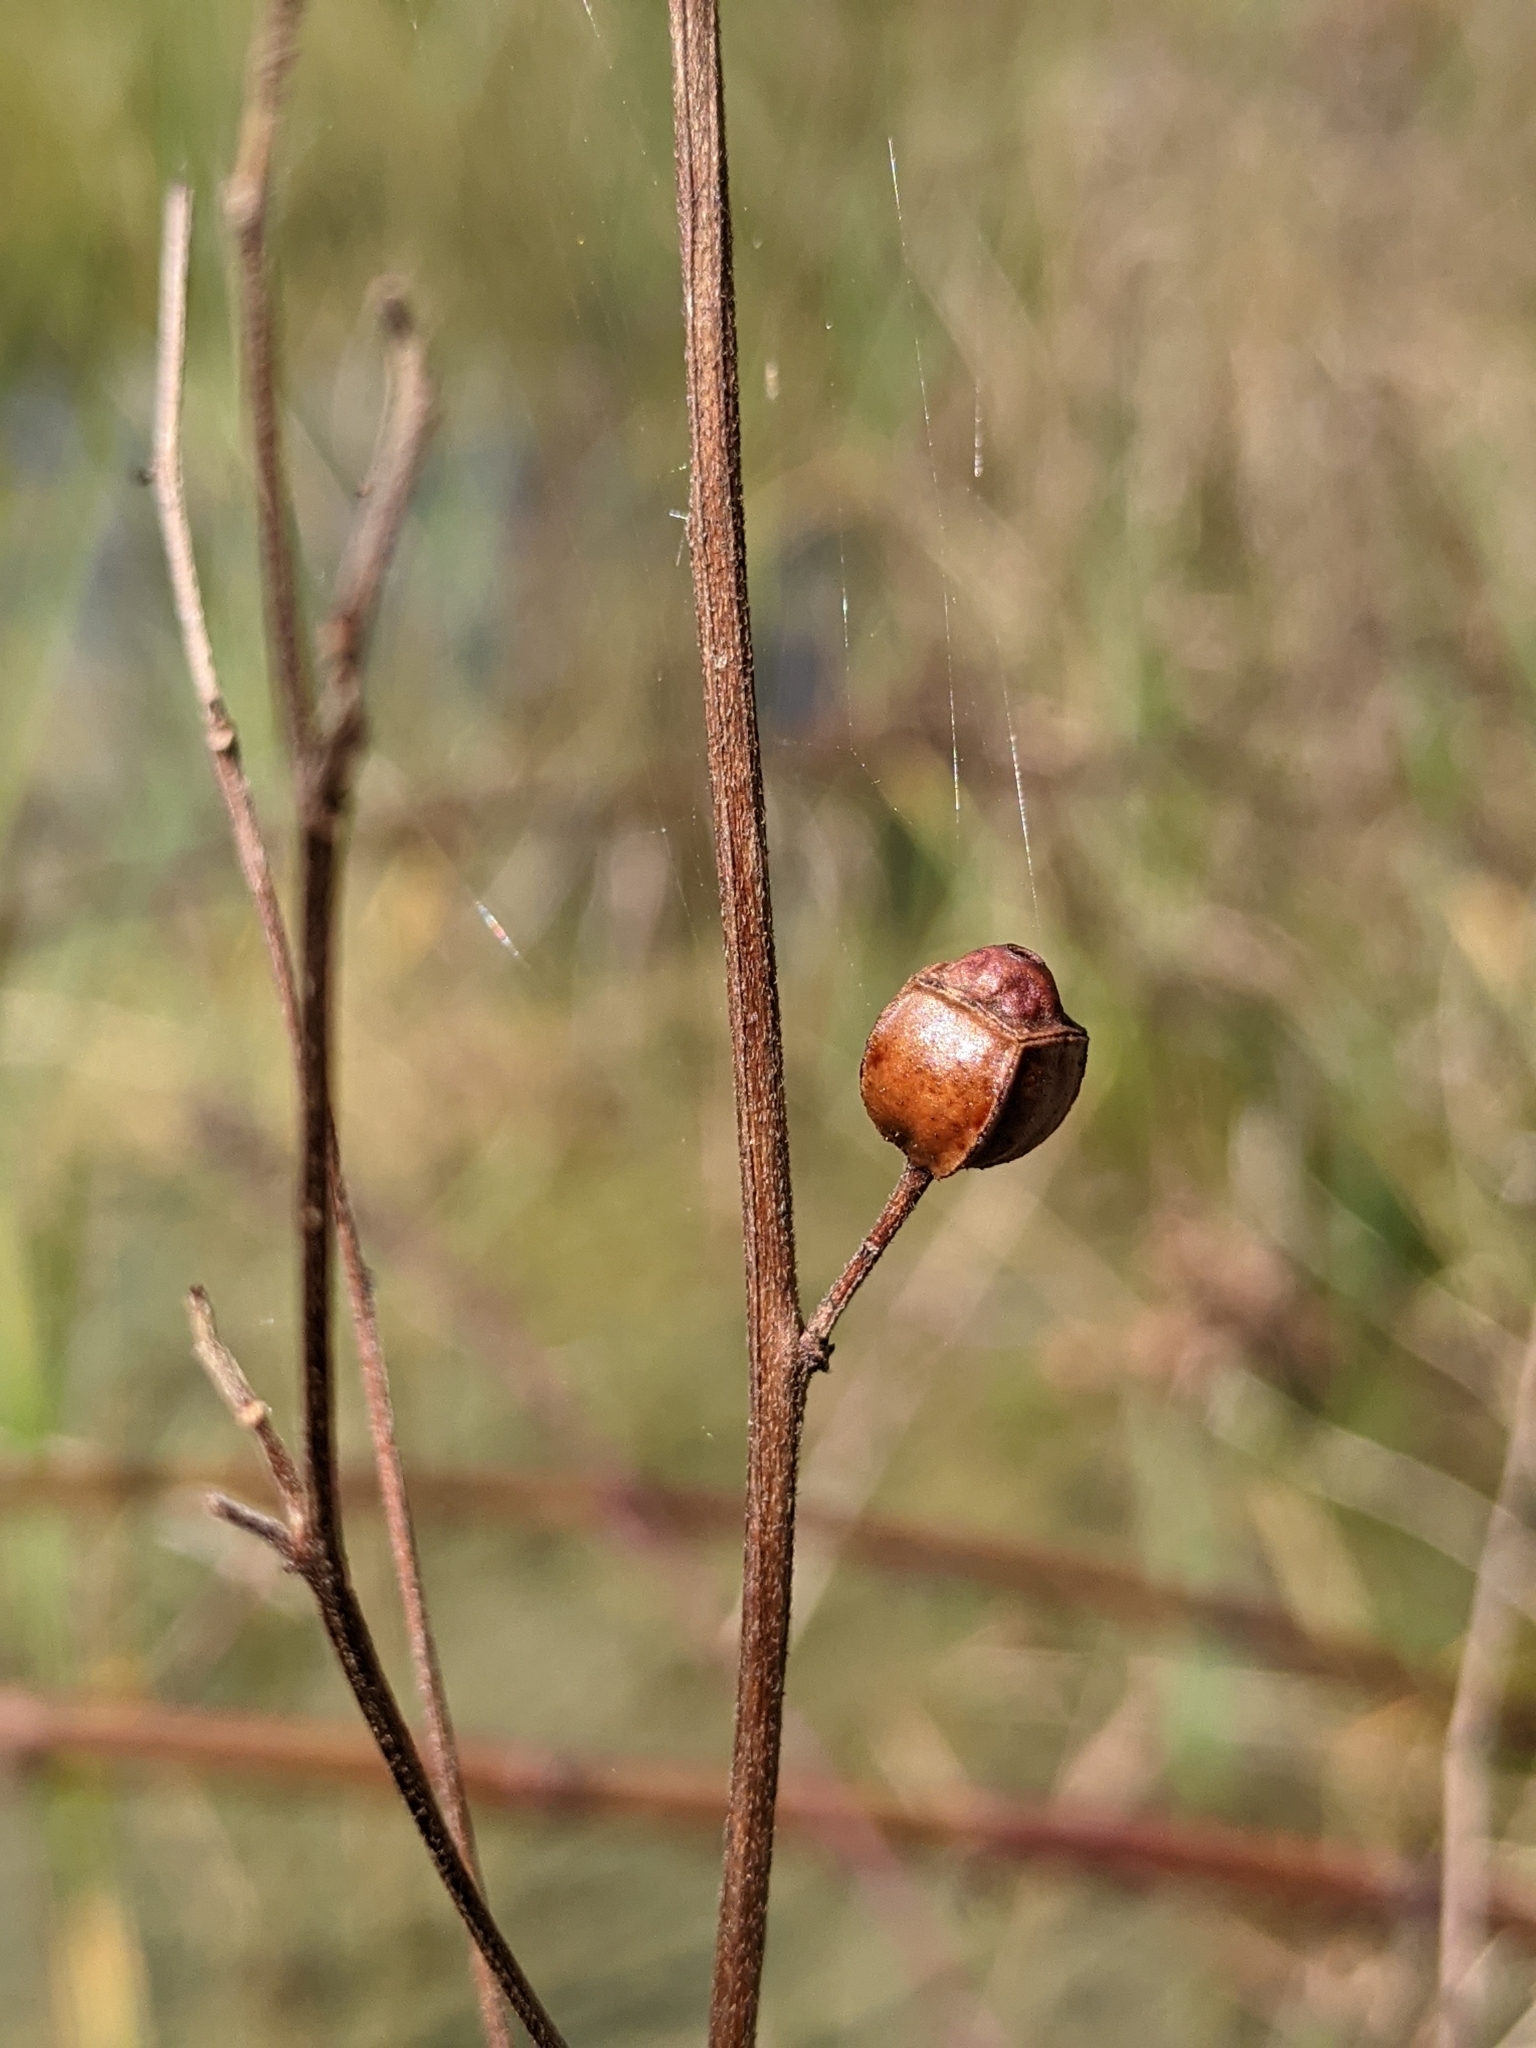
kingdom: Plantae
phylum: Tracheophyta
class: Magnoliopsida
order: Myrtales
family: Onagraceae
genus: Ludwigia
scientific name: Ludwigia alternifolia
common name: Rattlebox
